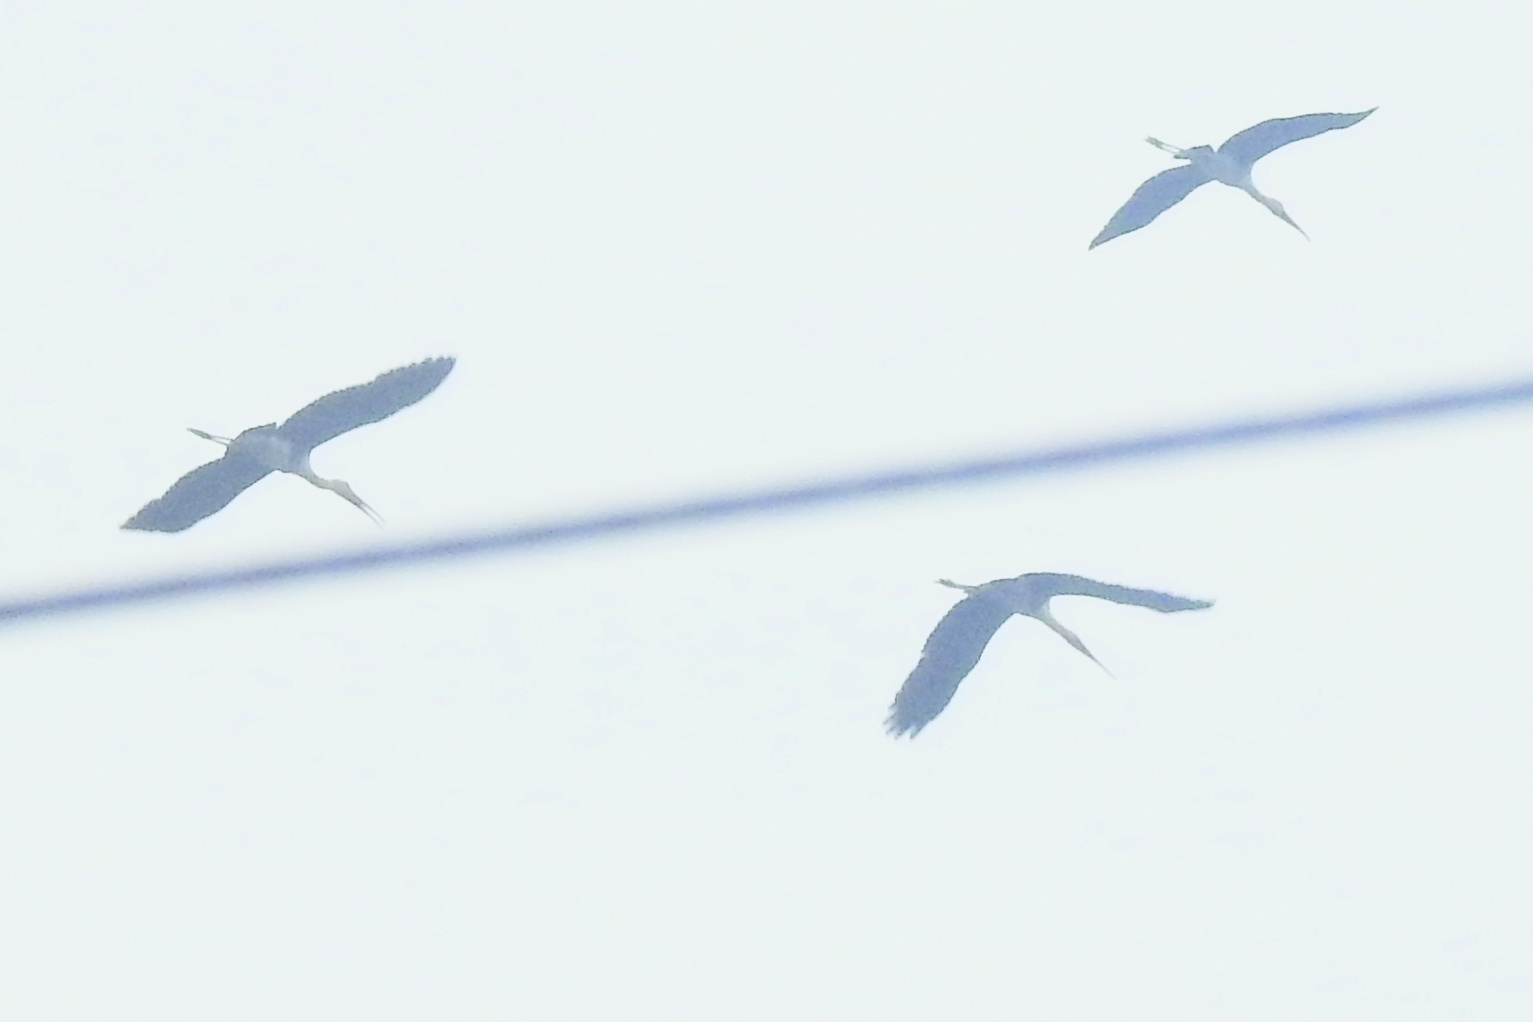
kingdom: Animalia
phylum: Chordata
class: Aves
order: Ciconiiformes
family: Ciconiidae
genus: Mycteria
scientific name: Mycteria leucocephala
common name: Painted stork
